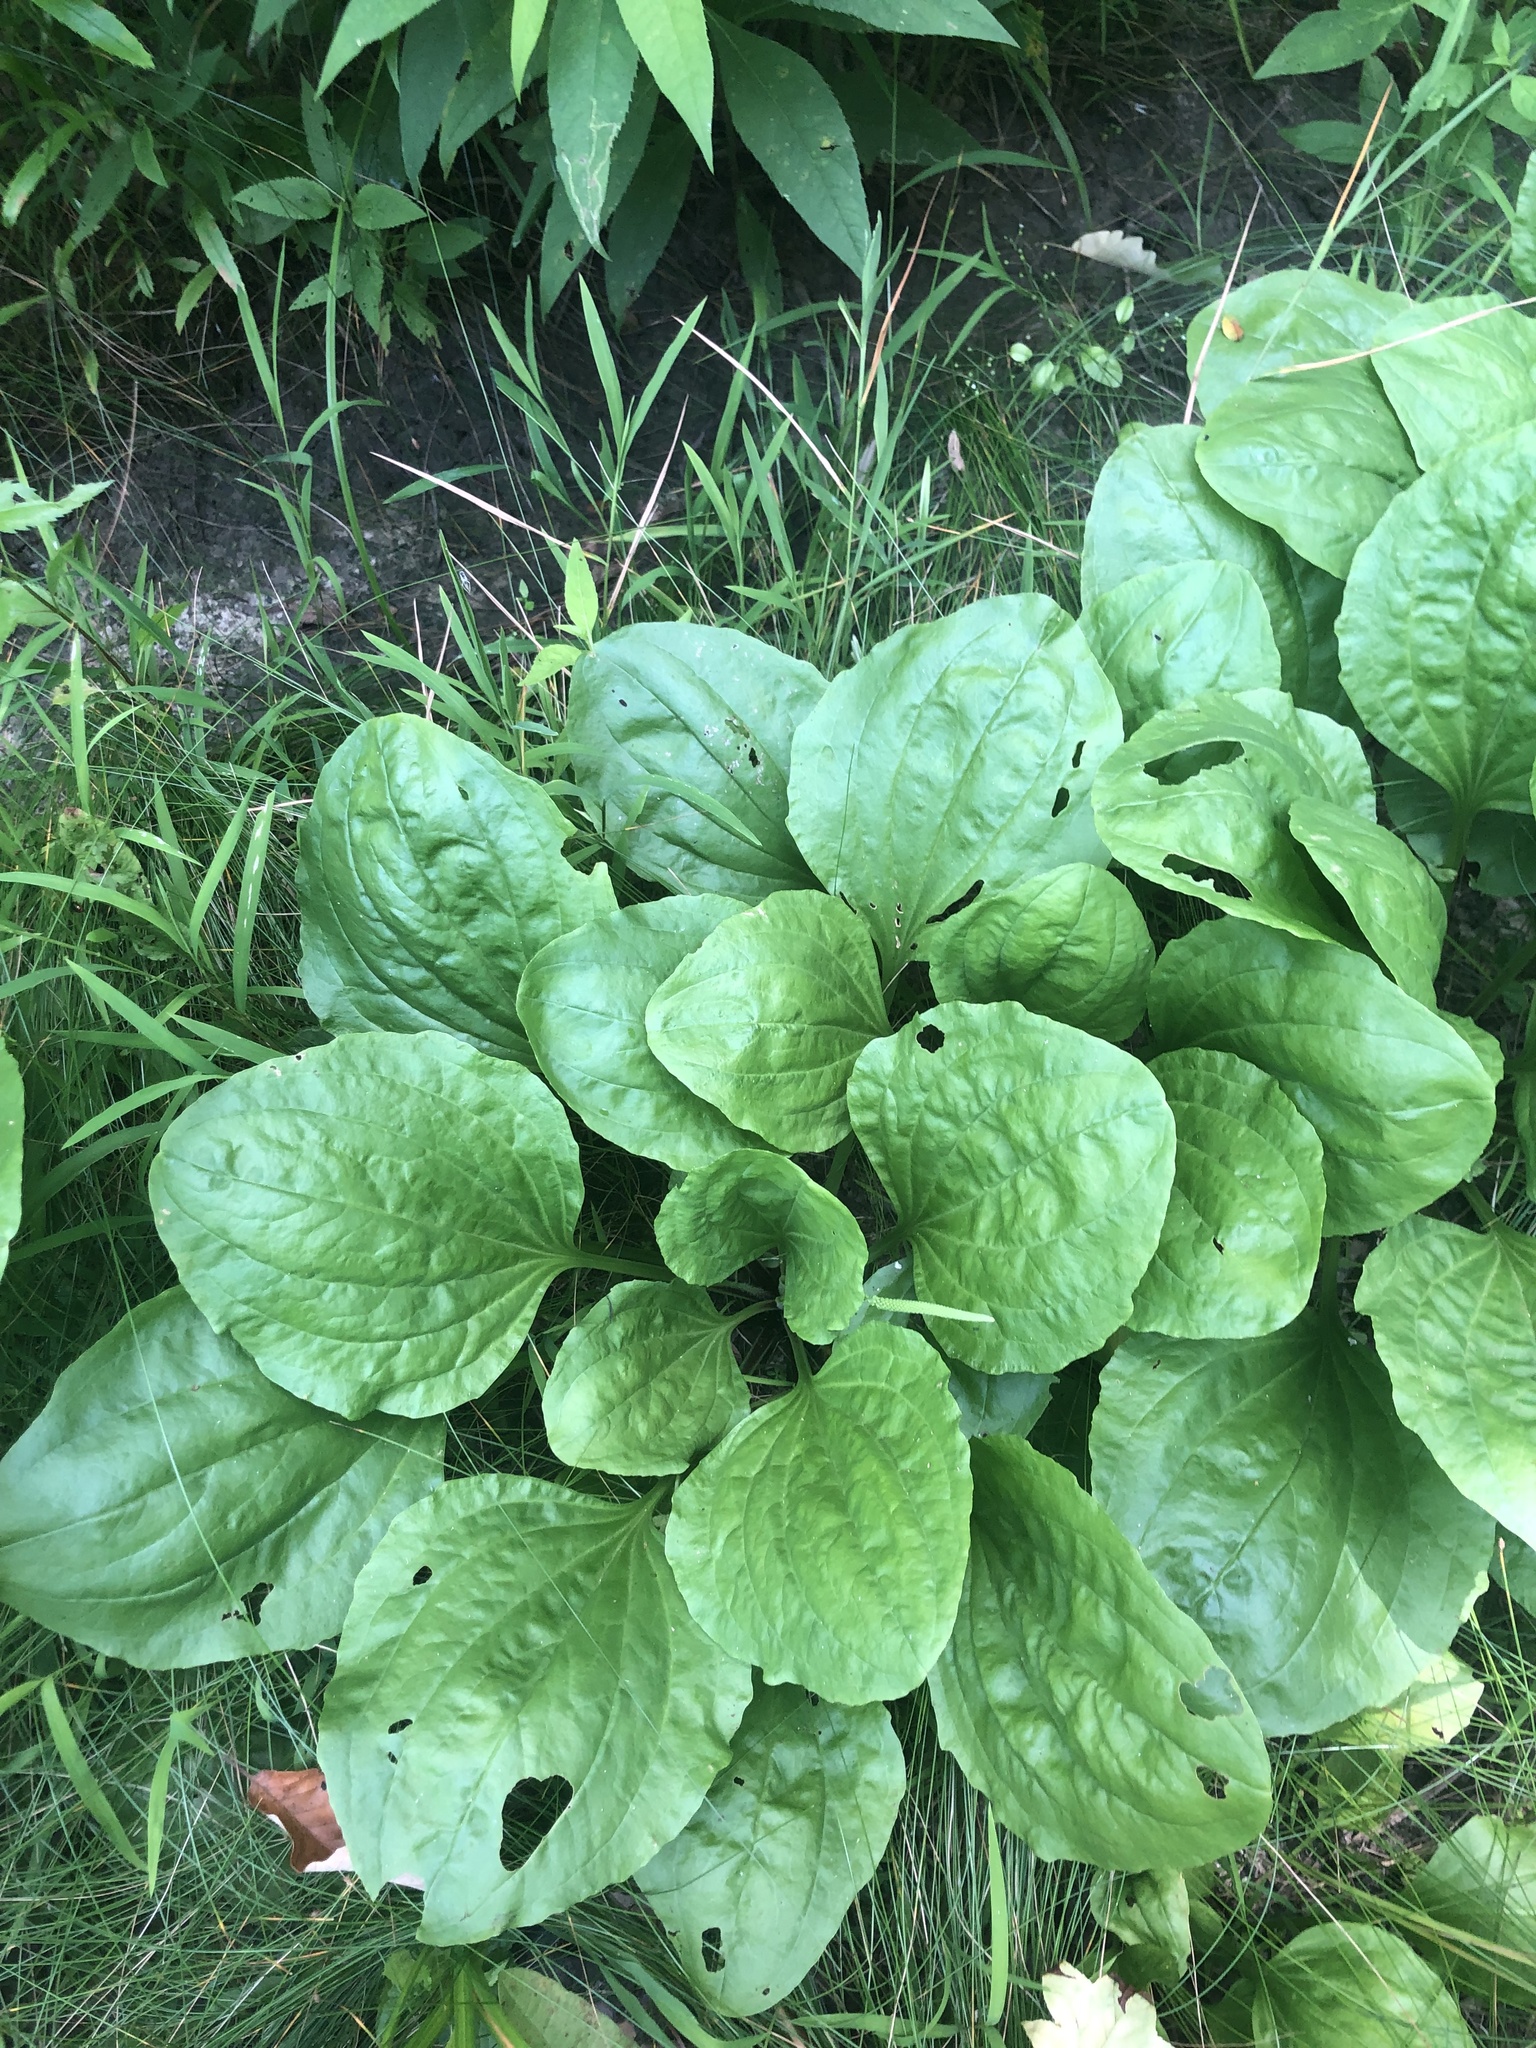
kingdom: Plantae
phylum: Tracheophyta
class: Magnoliopsida
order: Lamiales
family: Plantaginaceae
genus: Plantago
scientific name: Plantago rugelii
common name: American plantain
